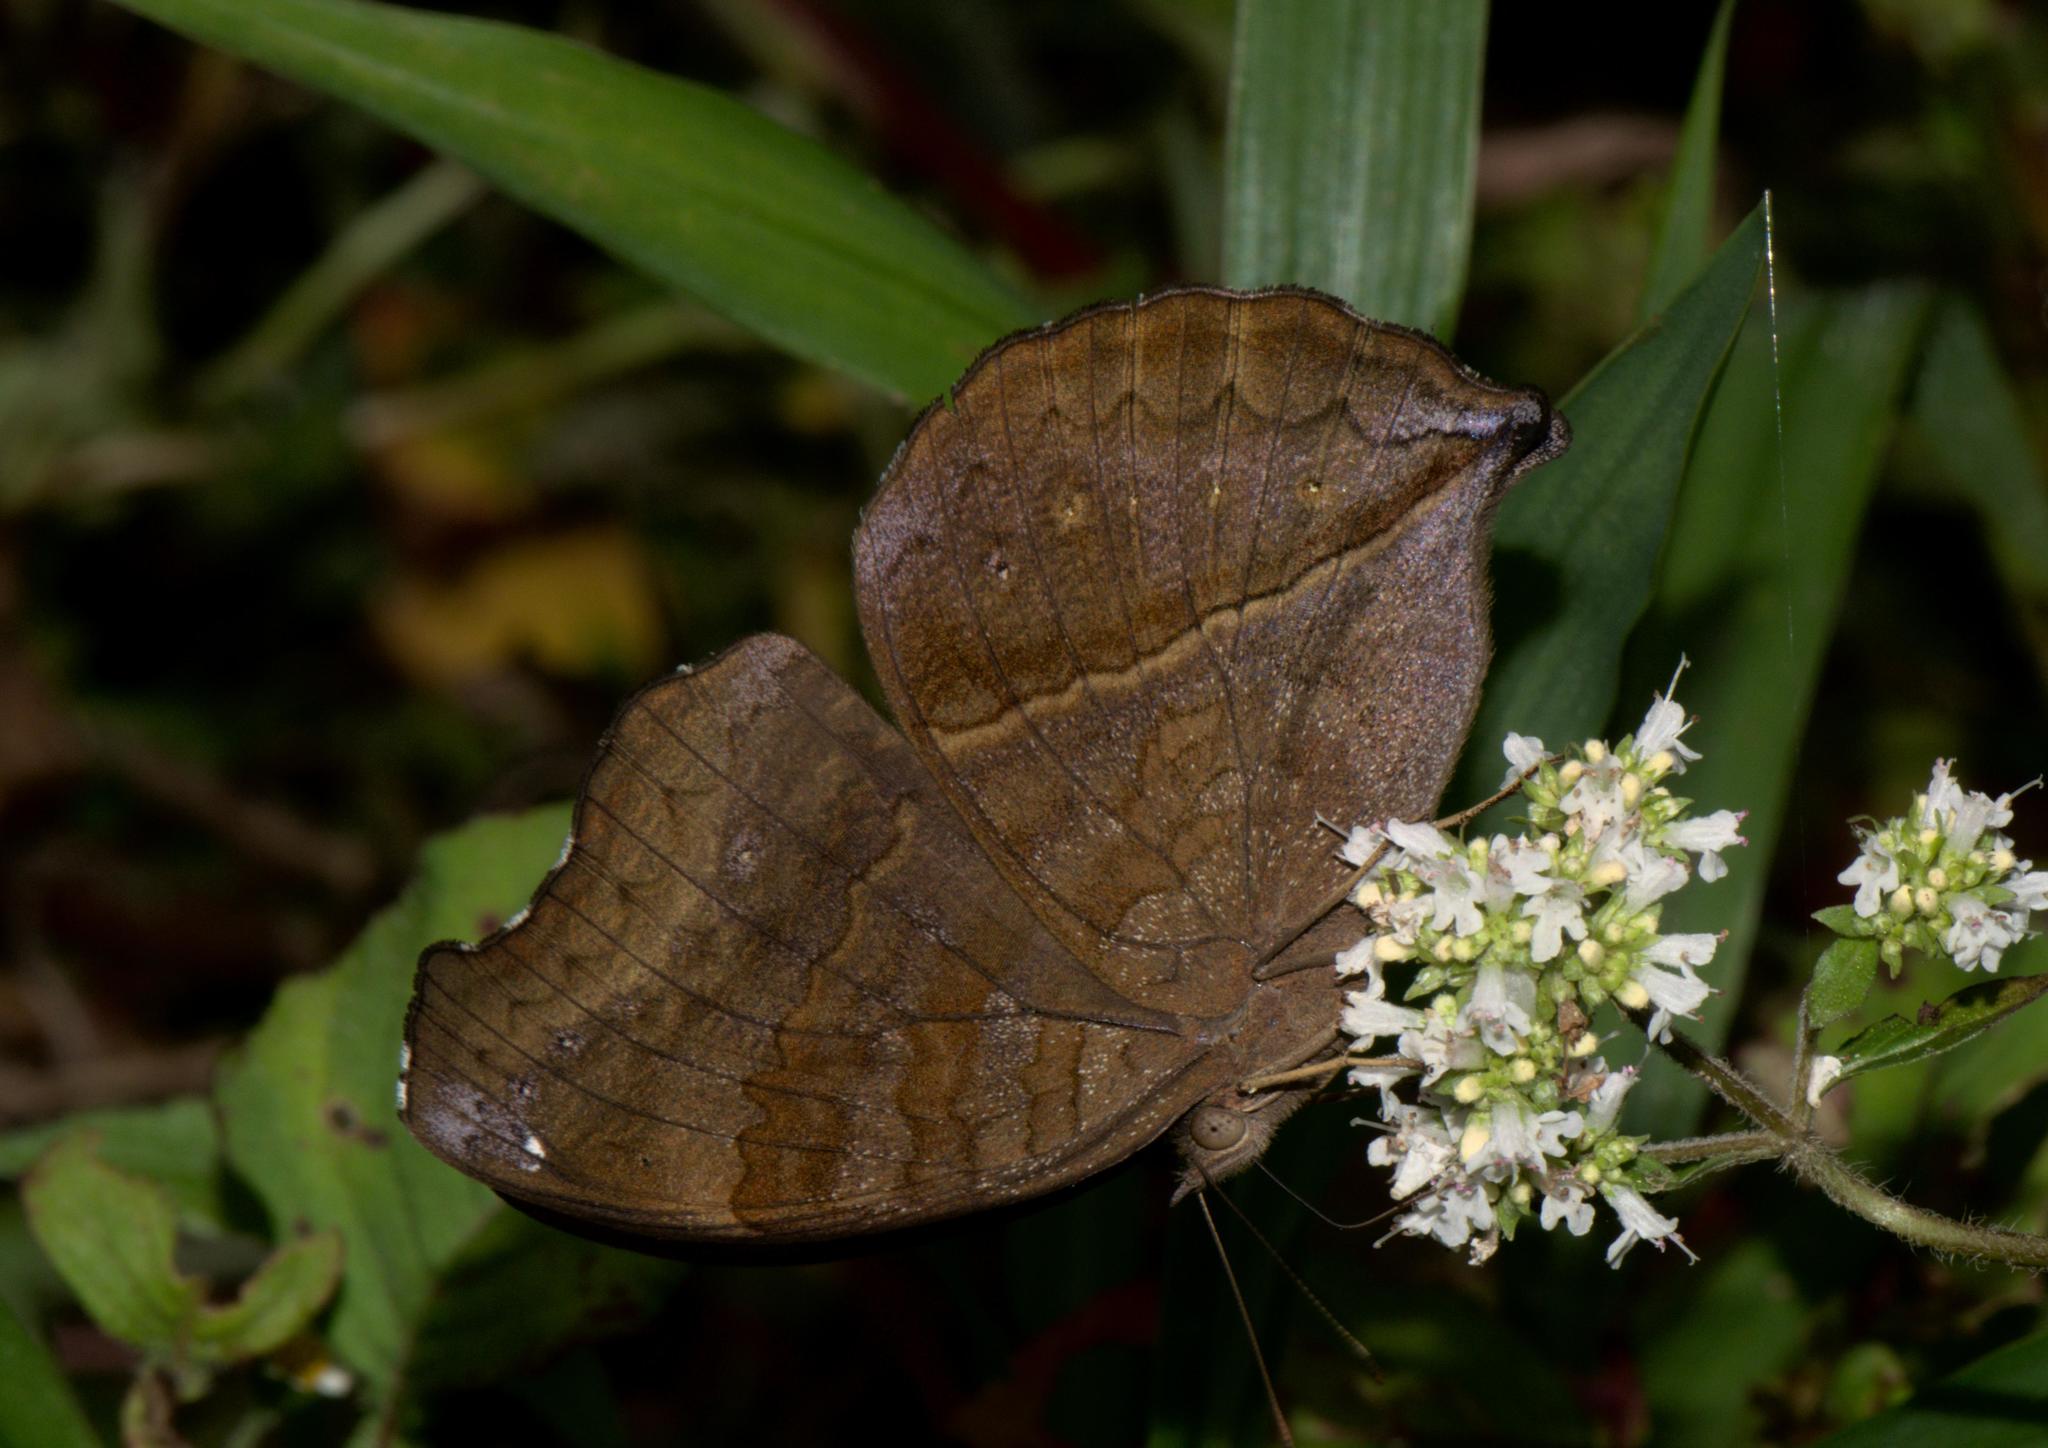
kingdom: Animalia
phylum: Arthropoda
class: Insecta
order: Lepidoptera
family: Nymphalidae
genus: Junonia
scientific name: Junonia iphita
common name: Chocolate pansy
